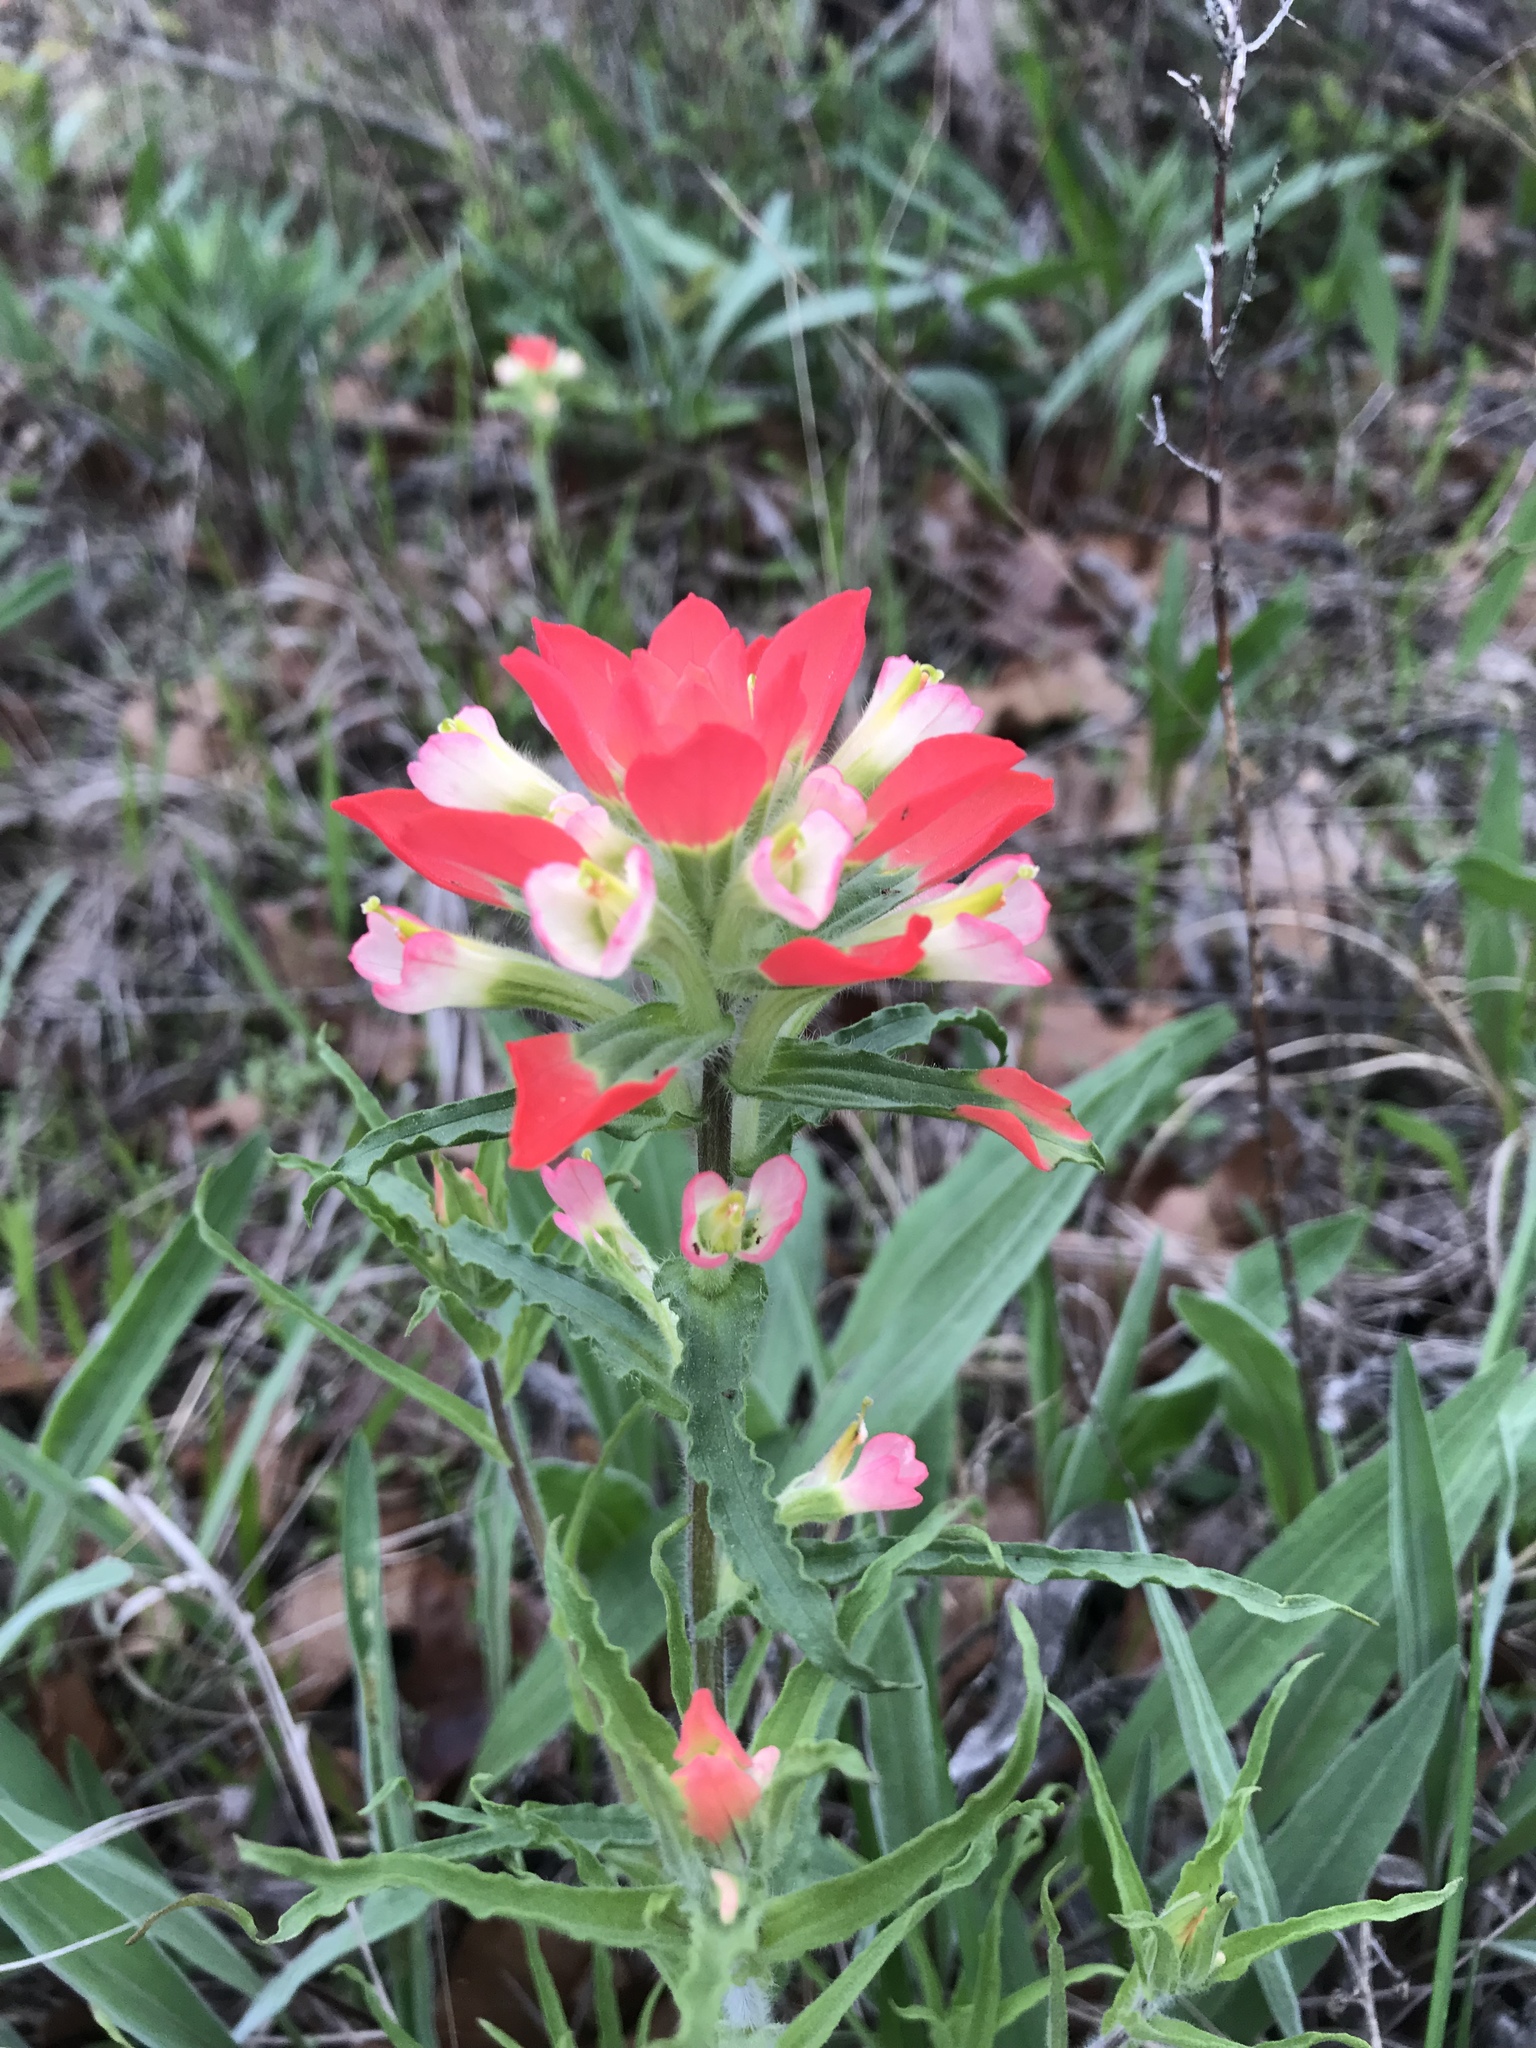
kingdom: Plantae
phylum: Tracheophyta
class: Magnoliopsida
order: Lamiales
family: Orobanchaceae
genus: Castilleja
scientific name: Castilleja indivisa
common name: Texas paintbrush
